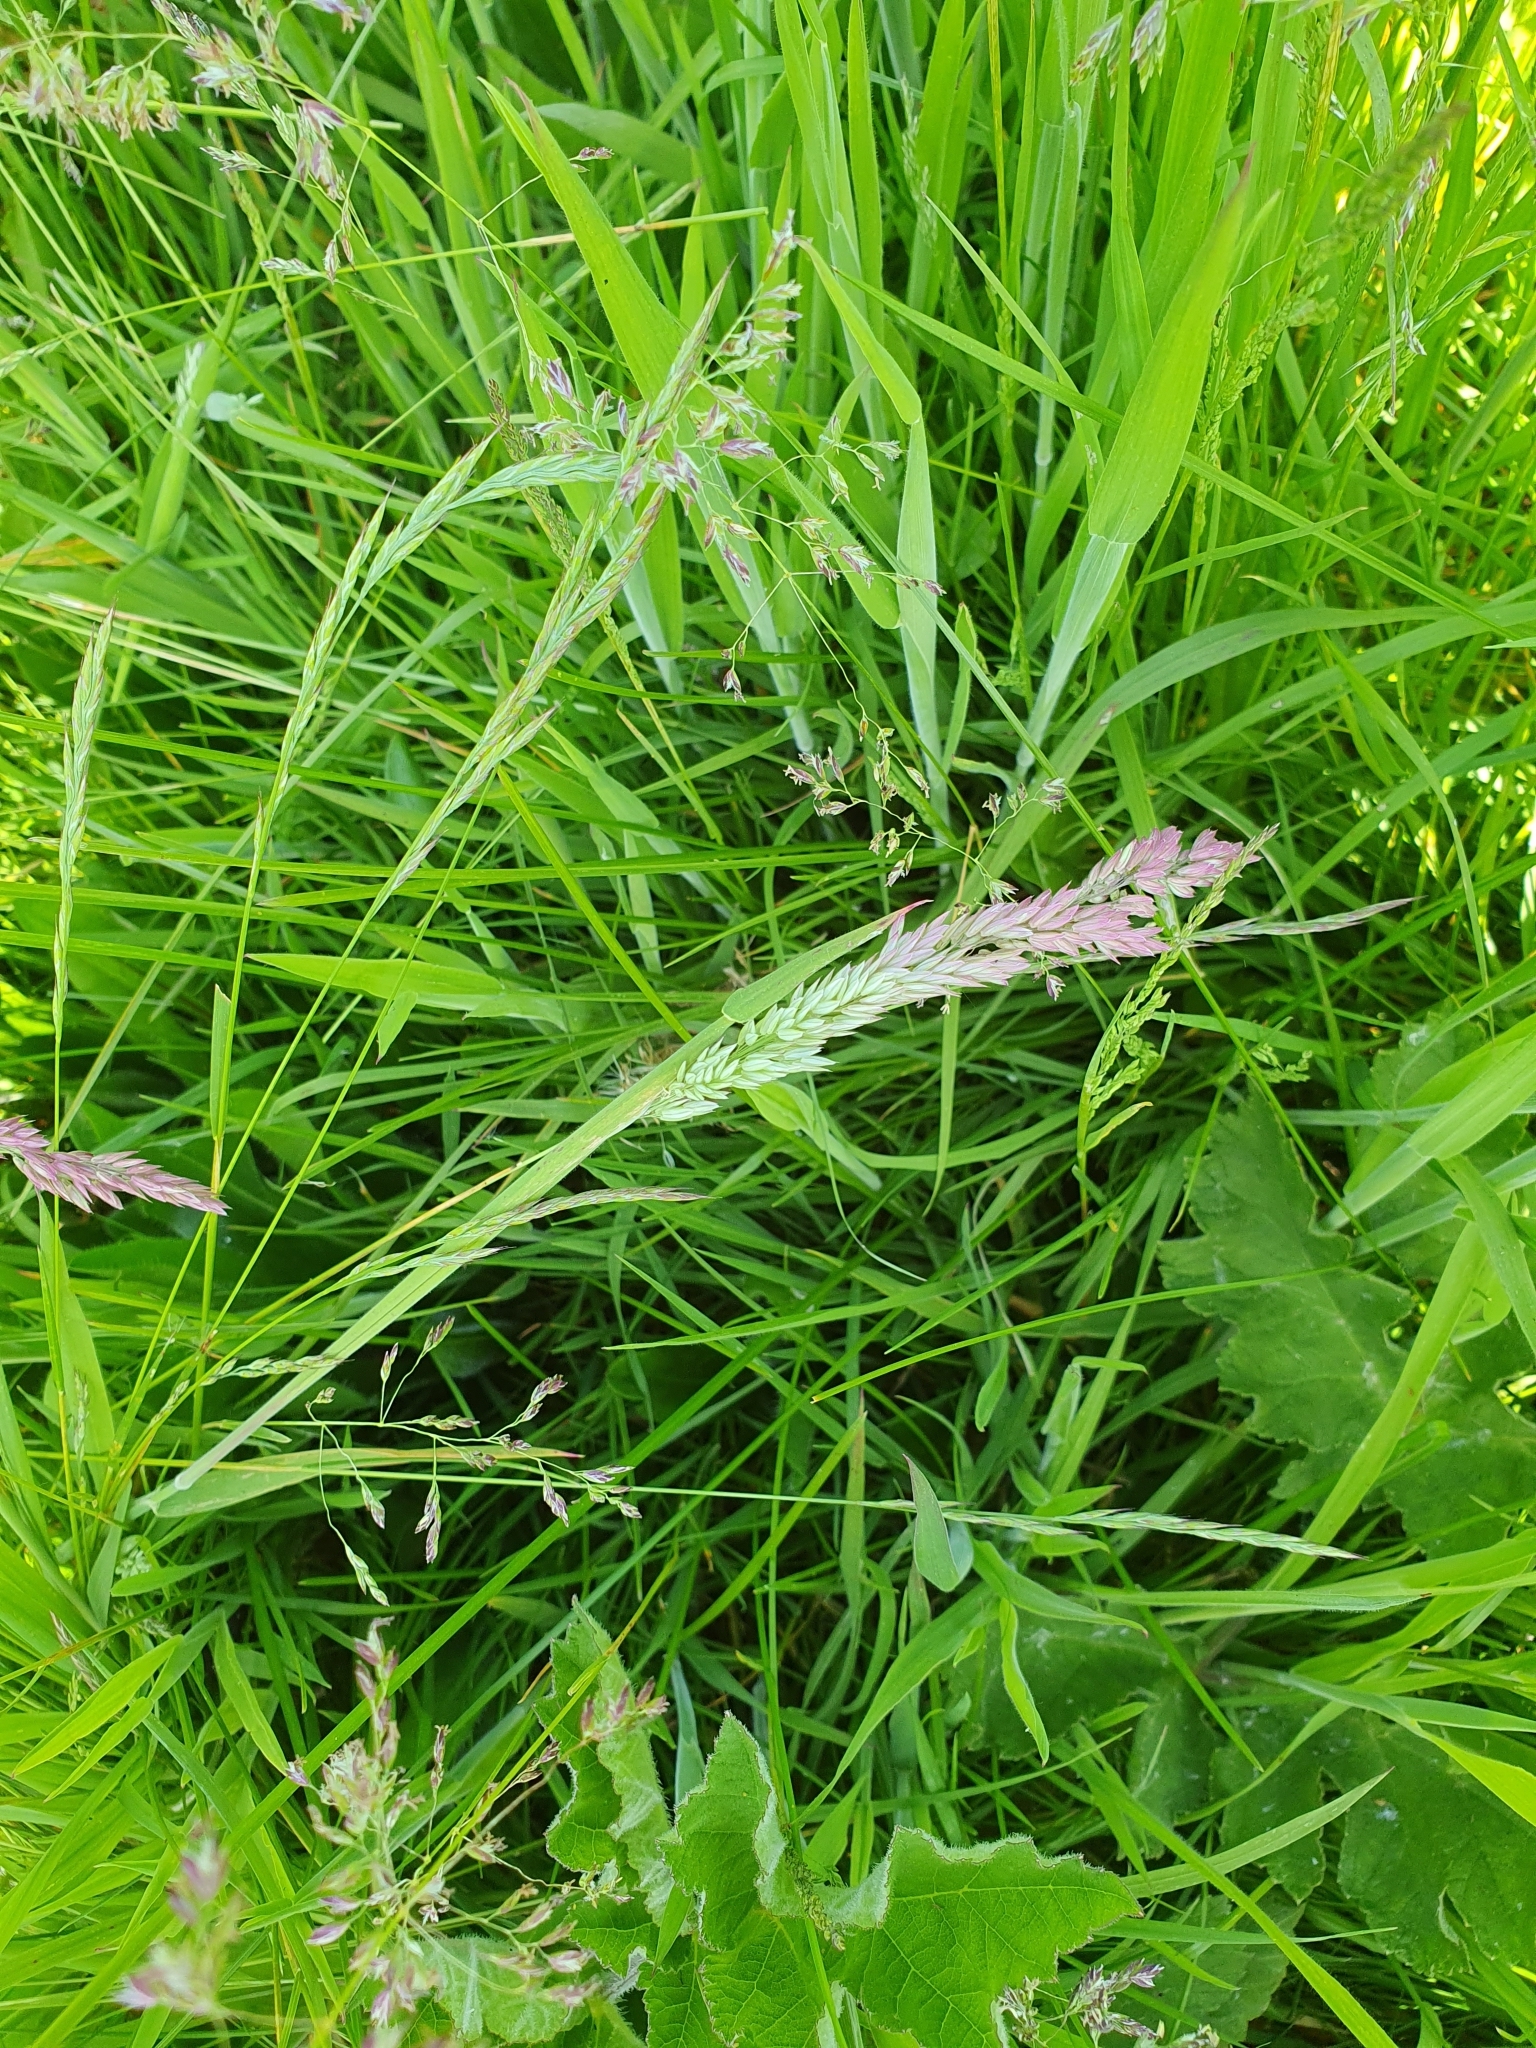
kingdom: Plantae
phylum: Tracheophyta
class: Liliopsida
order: Poales
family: Poaceae
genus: Holcus
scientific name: Holcus lanatus
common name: Yorkshire-fog
